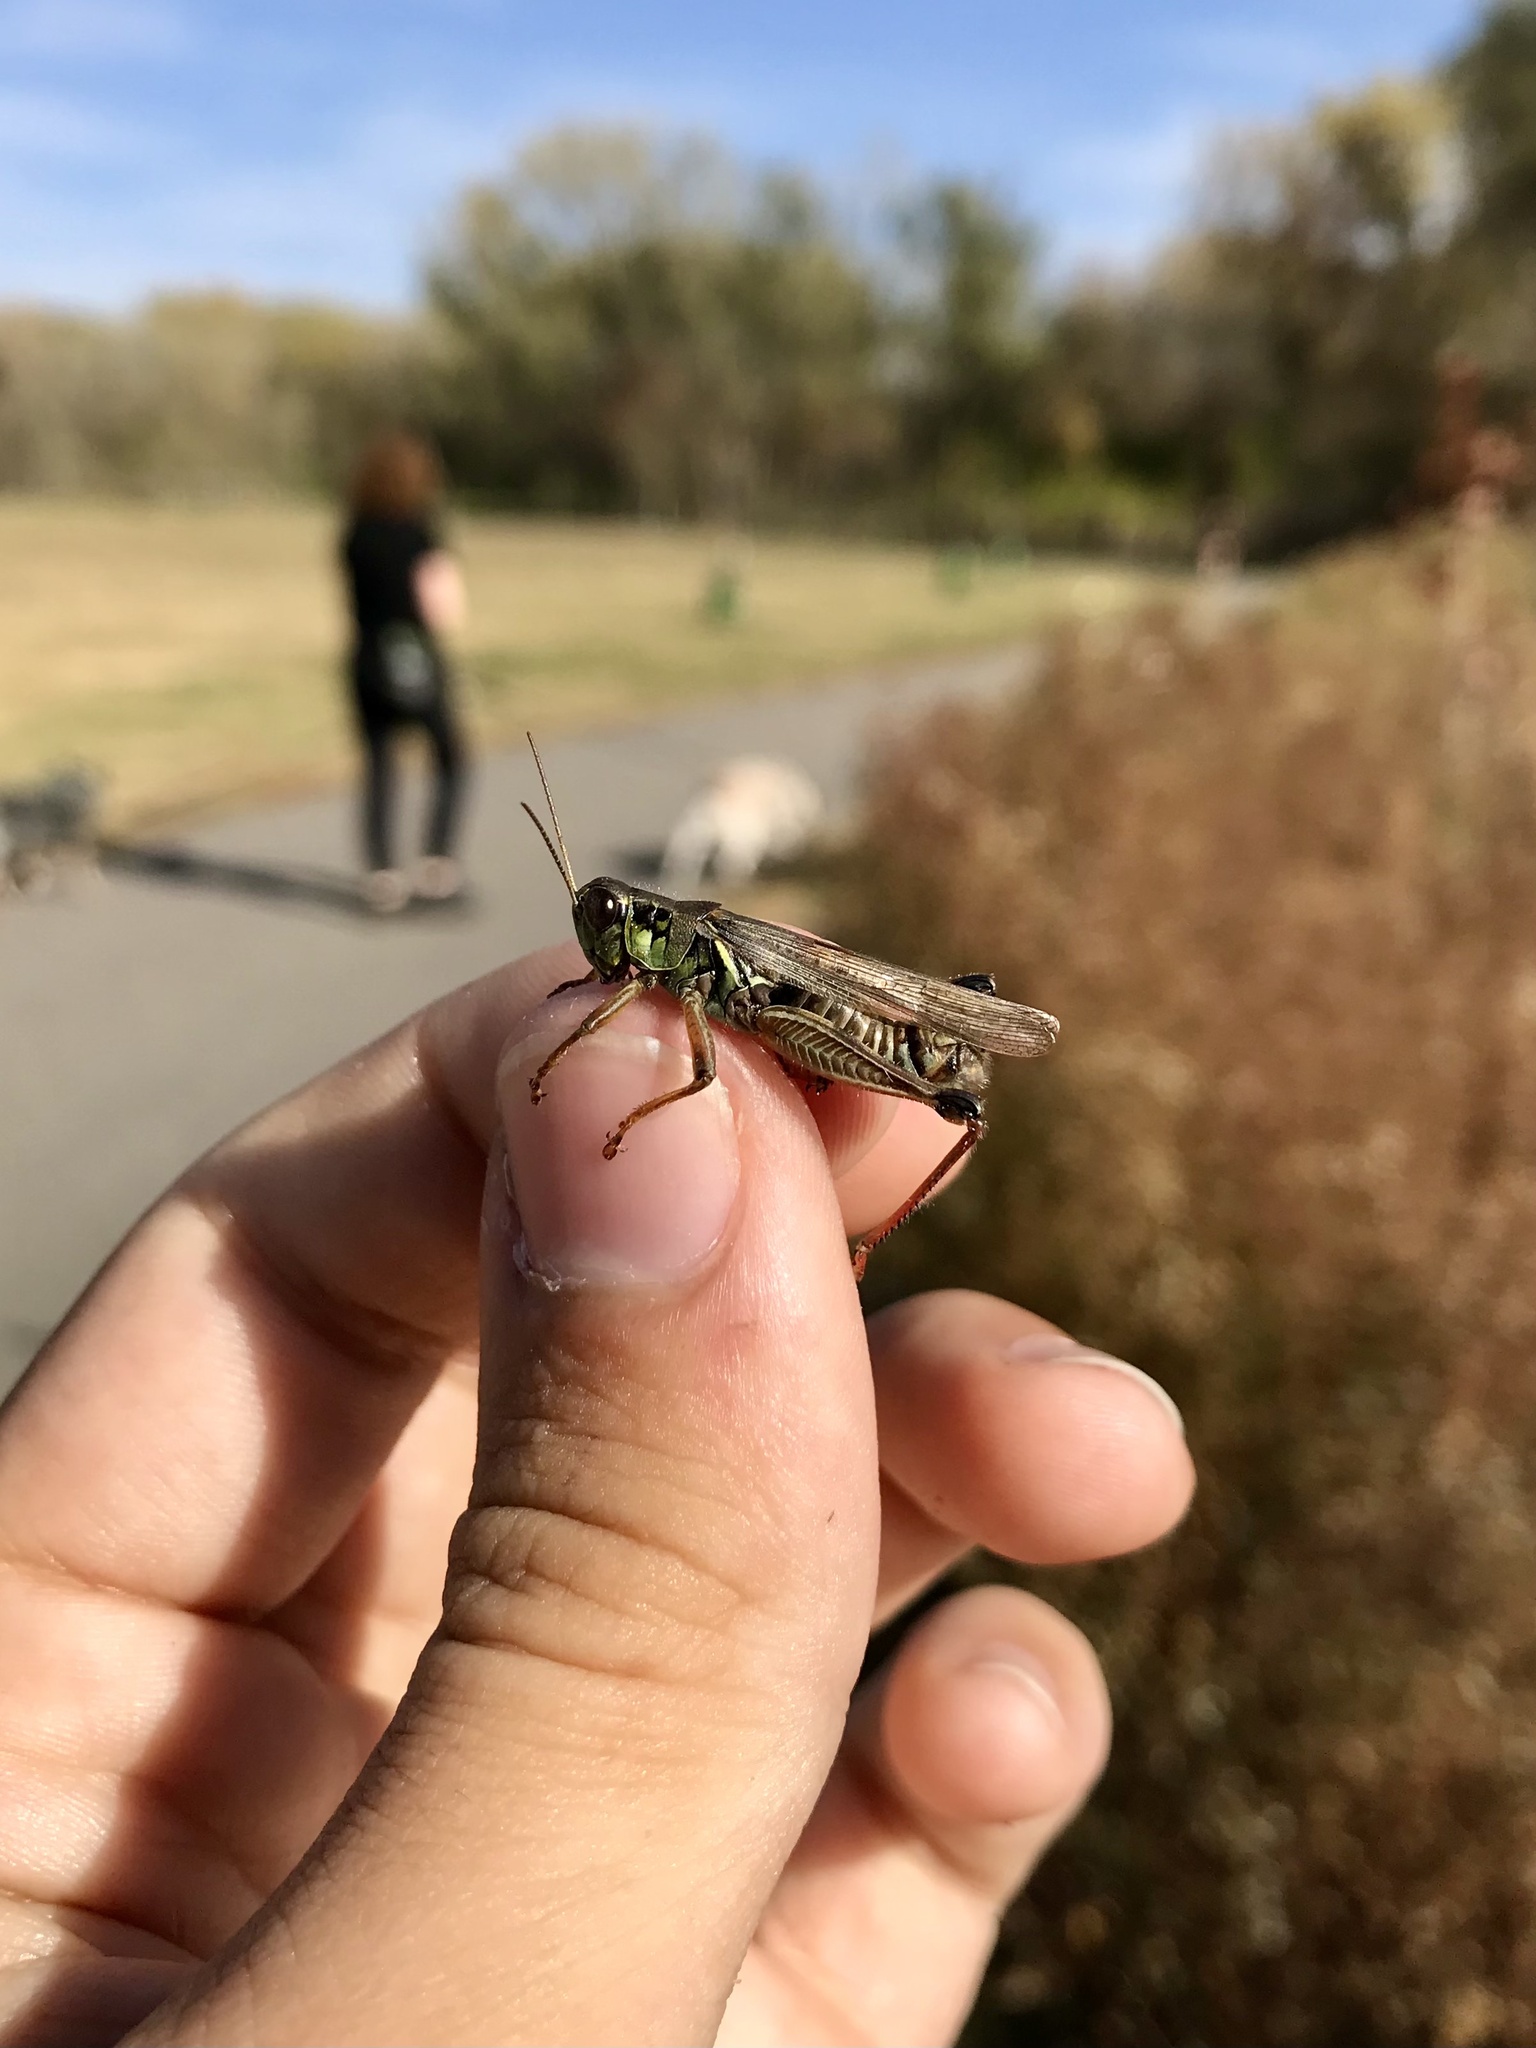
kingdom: Animalia
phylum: Arthropoda
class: Insecta
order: Orthoptera
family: Acrididae
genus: Melanoplus
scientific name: Melanoplus femurrubrum
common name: Red-legged grasshopper
